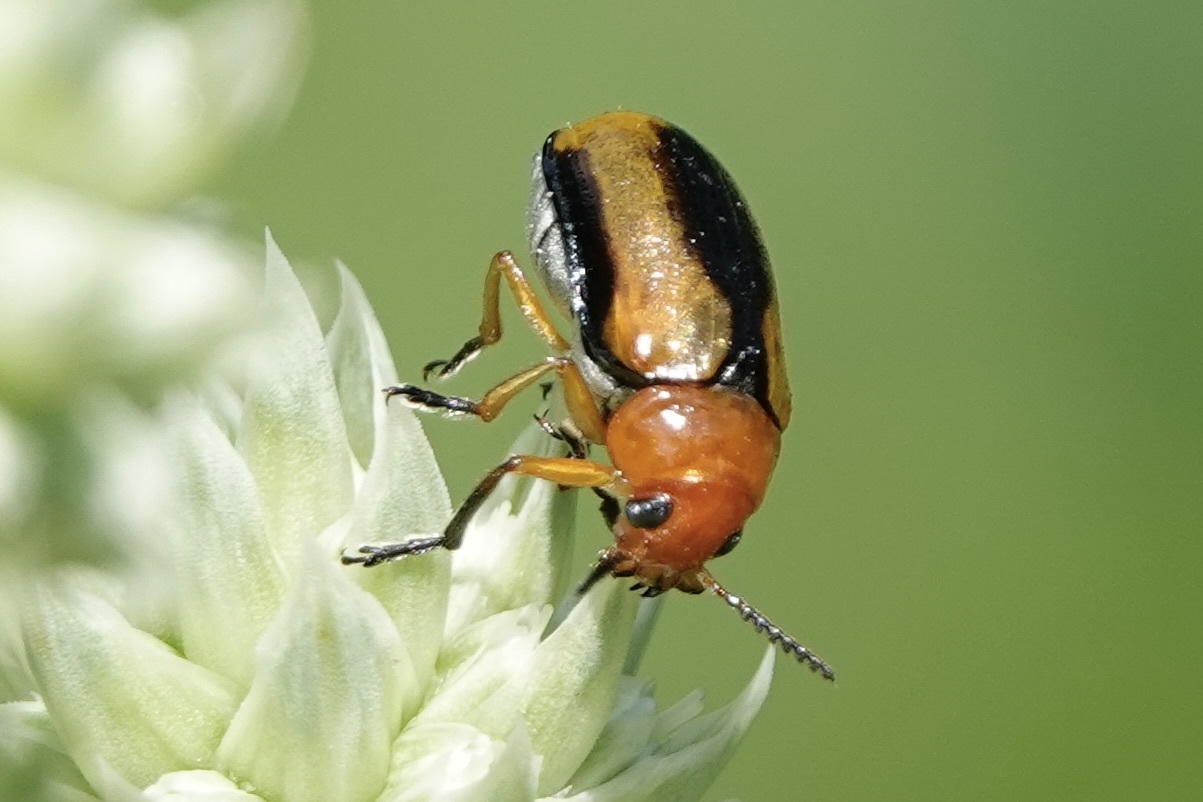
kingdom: Animalia
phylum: Arthropoda
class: Insecta
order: Coleoptera
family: Chrysomelidae
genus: Anomoea
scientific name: Anomoea laticlavia
